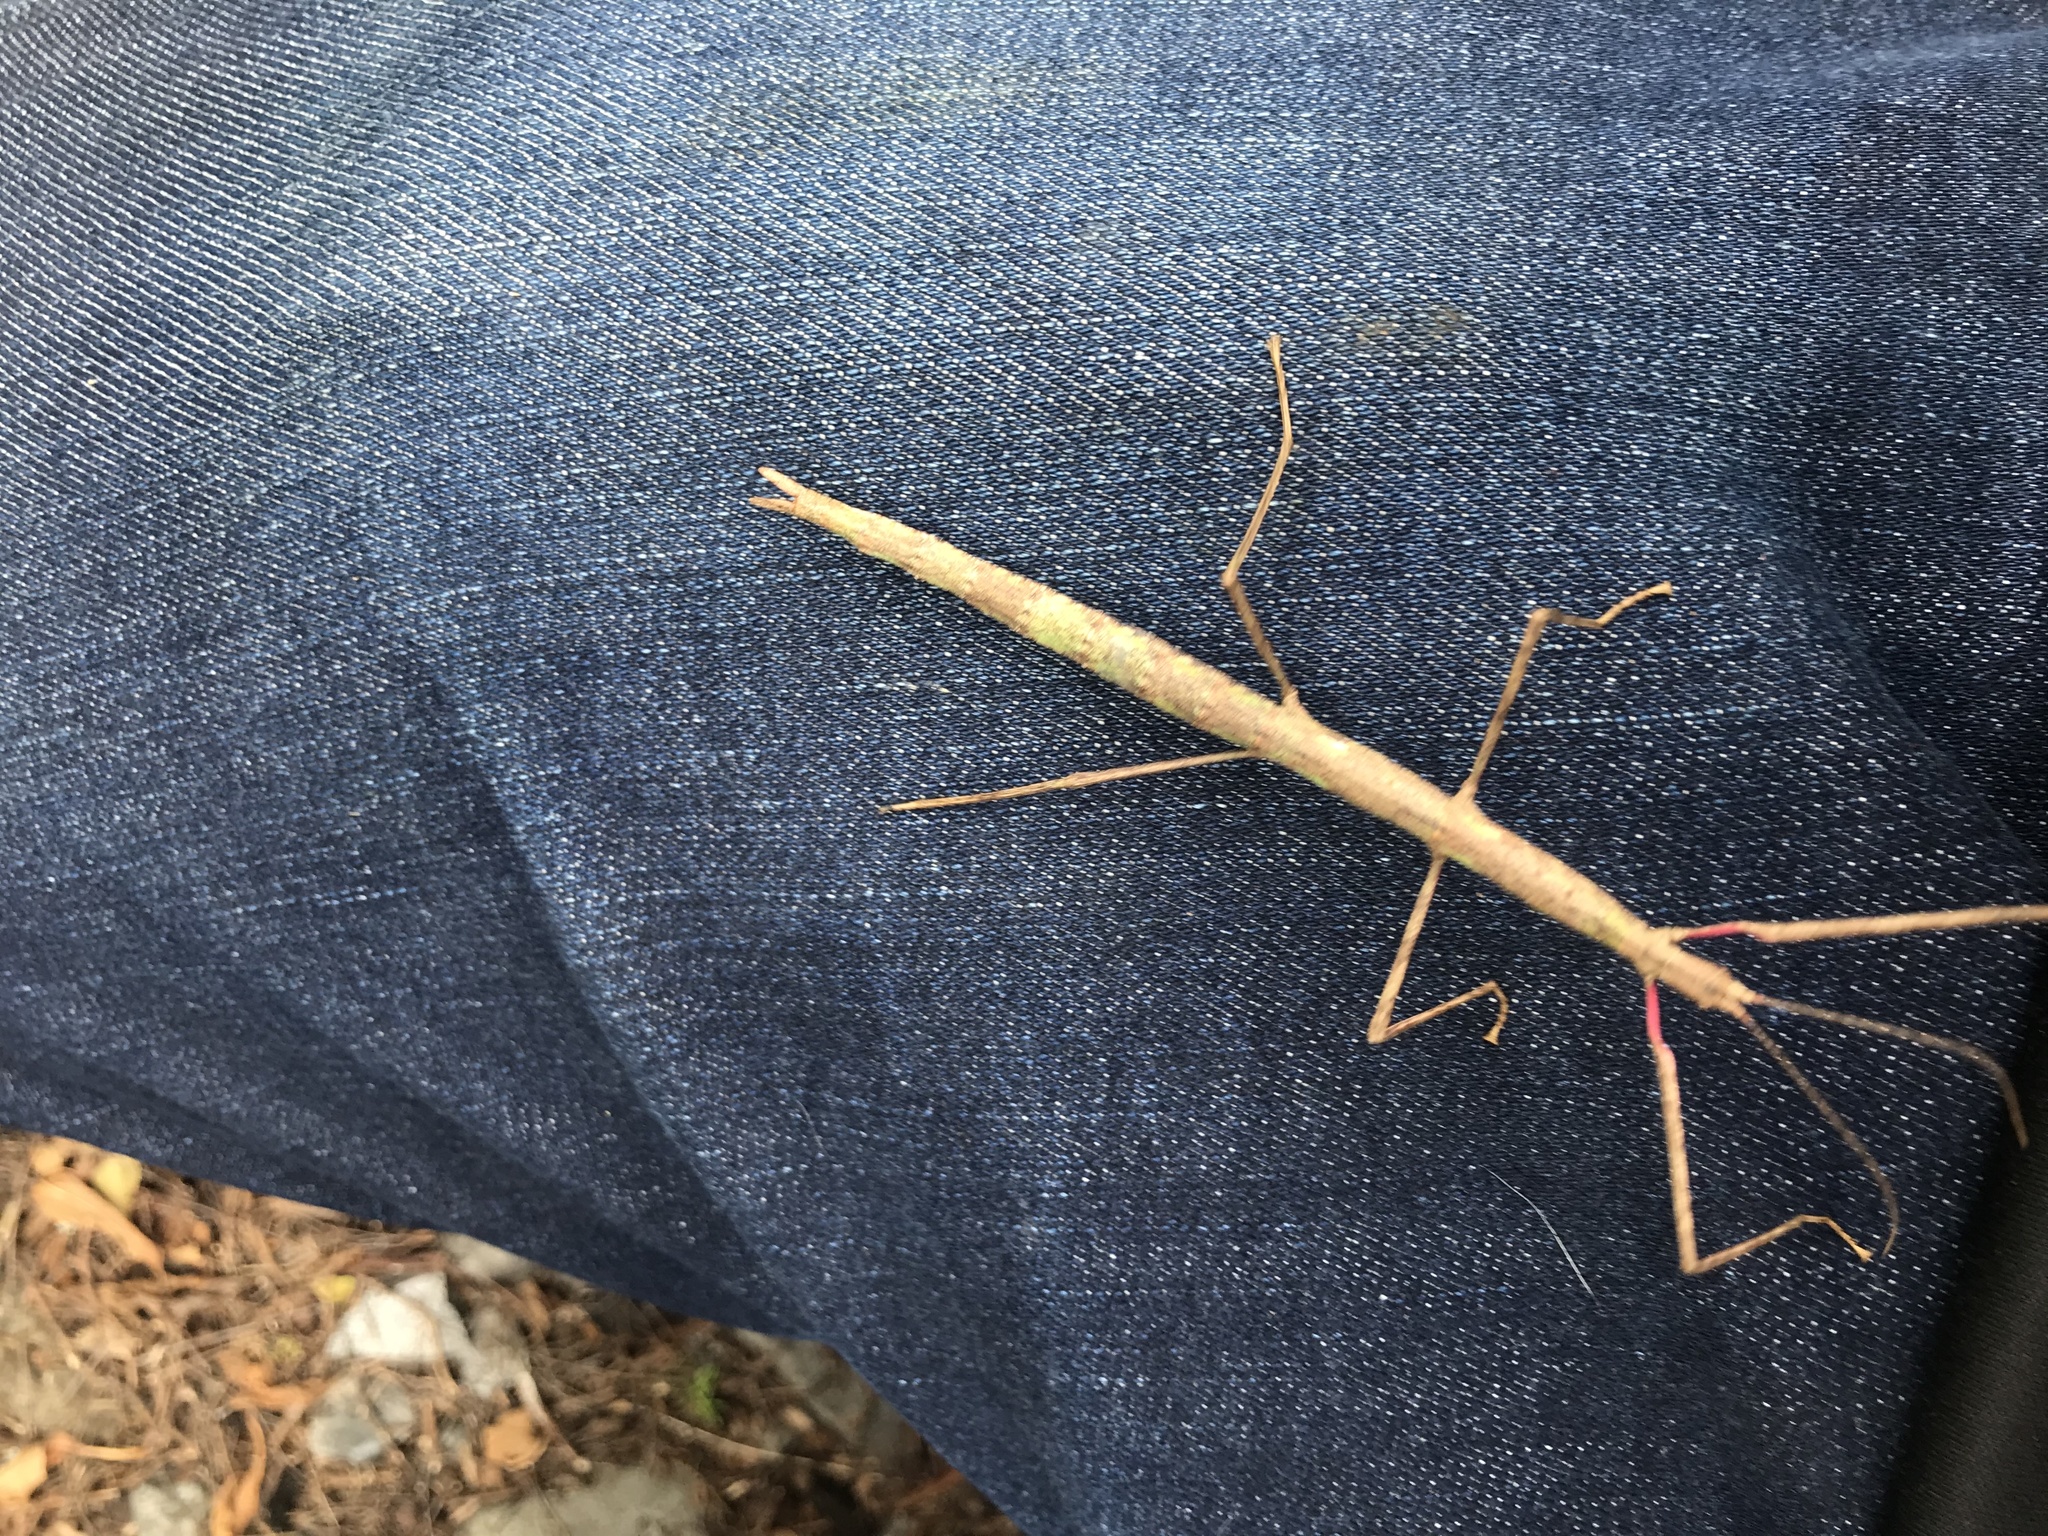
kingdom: Animalia
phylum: Arthropoda
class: Insecta
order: Phasmida
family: Phasmatidae
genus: Clitarchus
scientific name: Clitarchus hookeri
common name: Smooth stick insect
